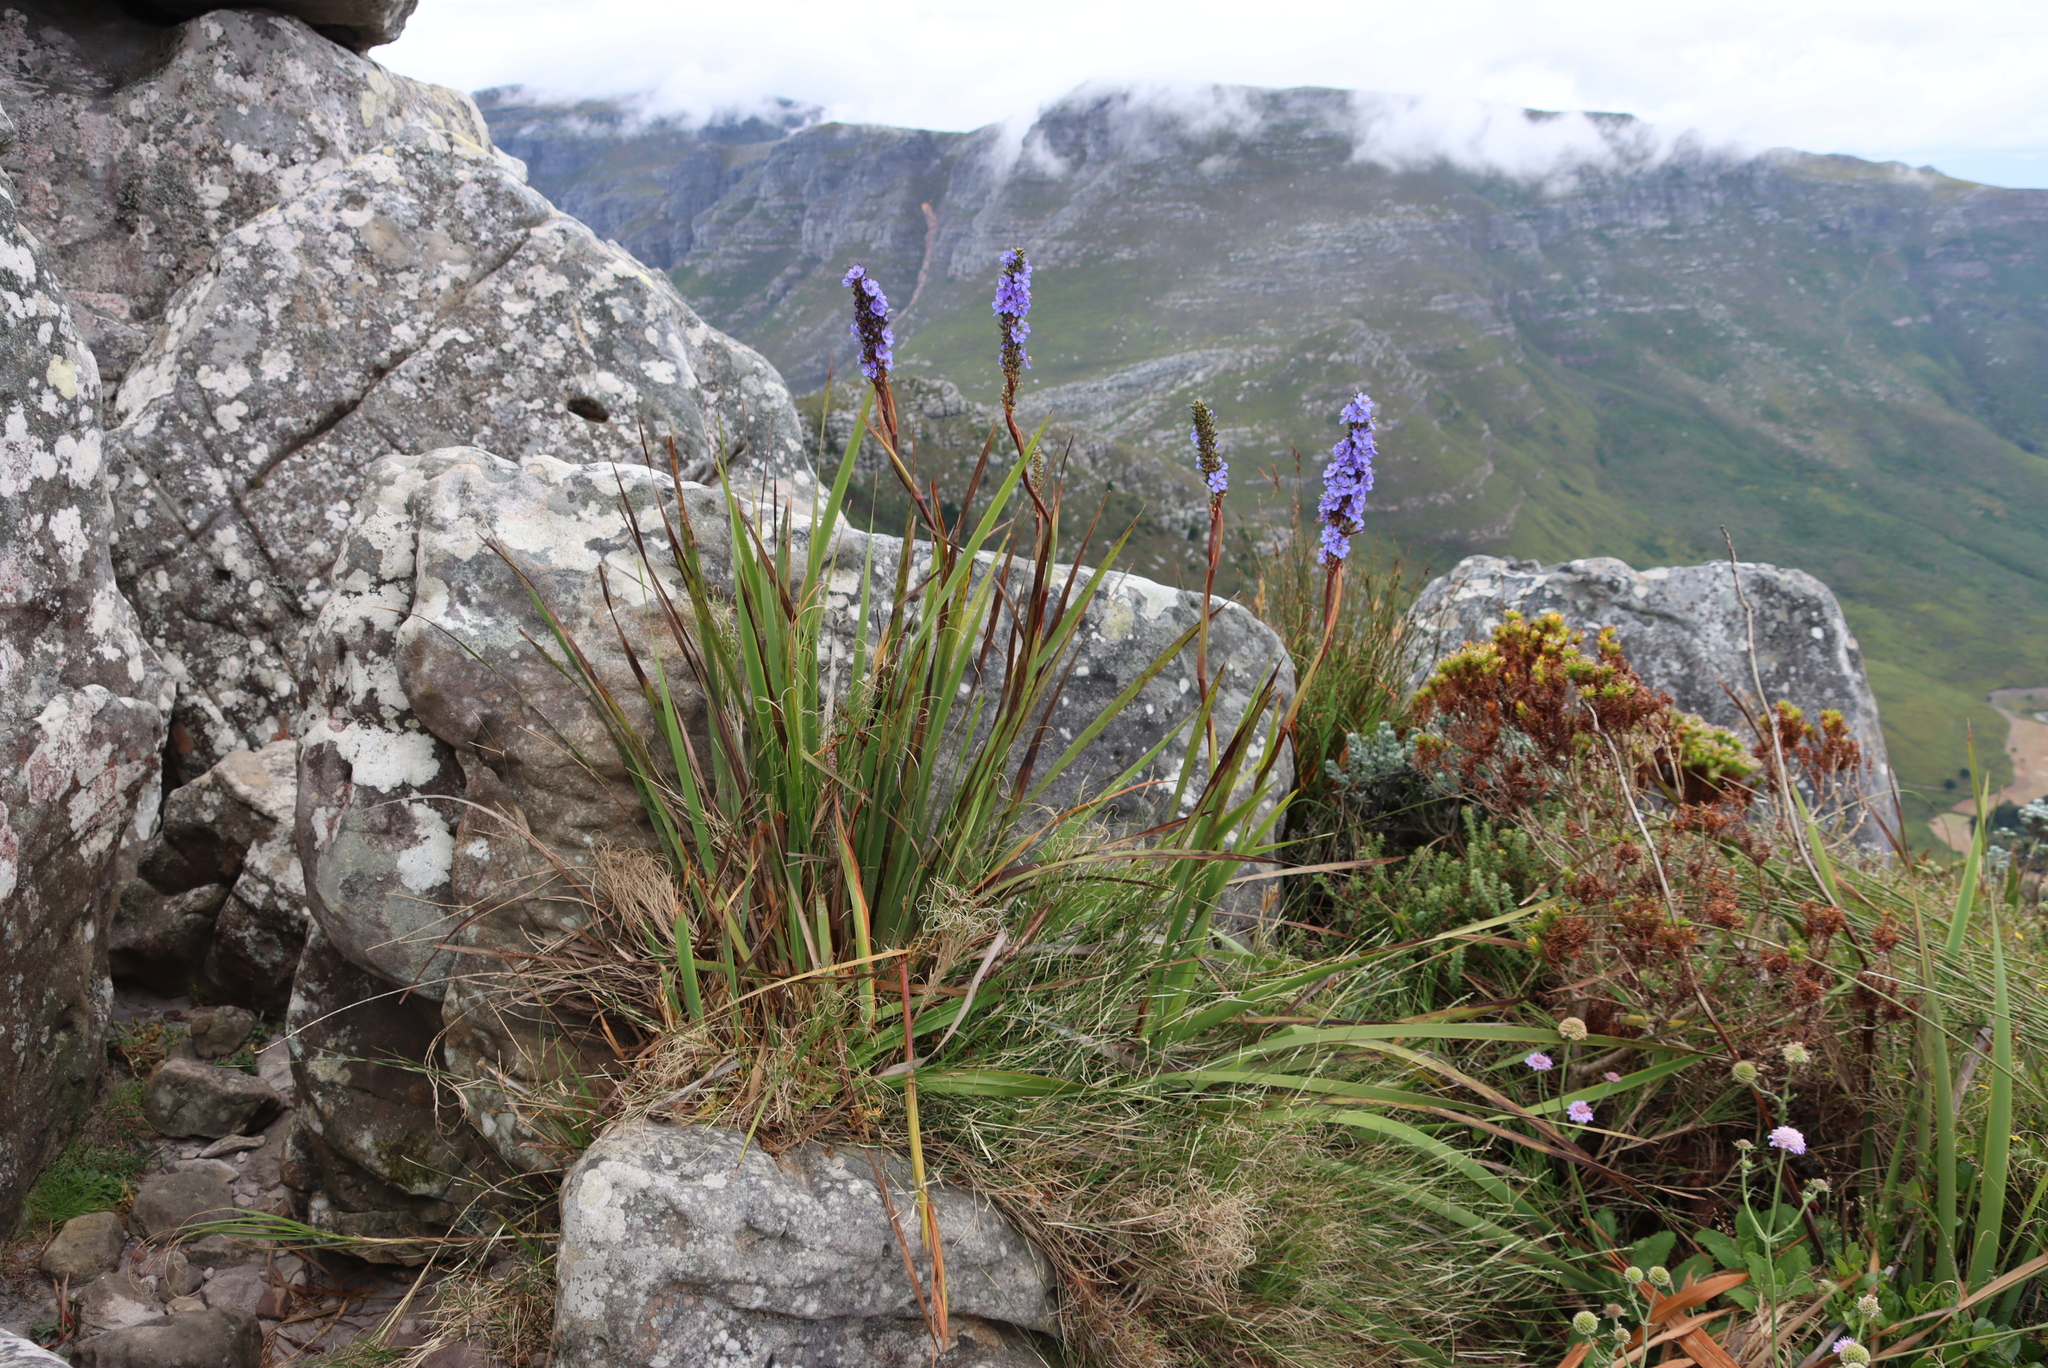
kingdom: Plantae
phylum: Tracheophyta
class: Liliopsida
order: Asparagales
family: Iridaceae
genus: Aristea
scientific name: Aristea capitata
